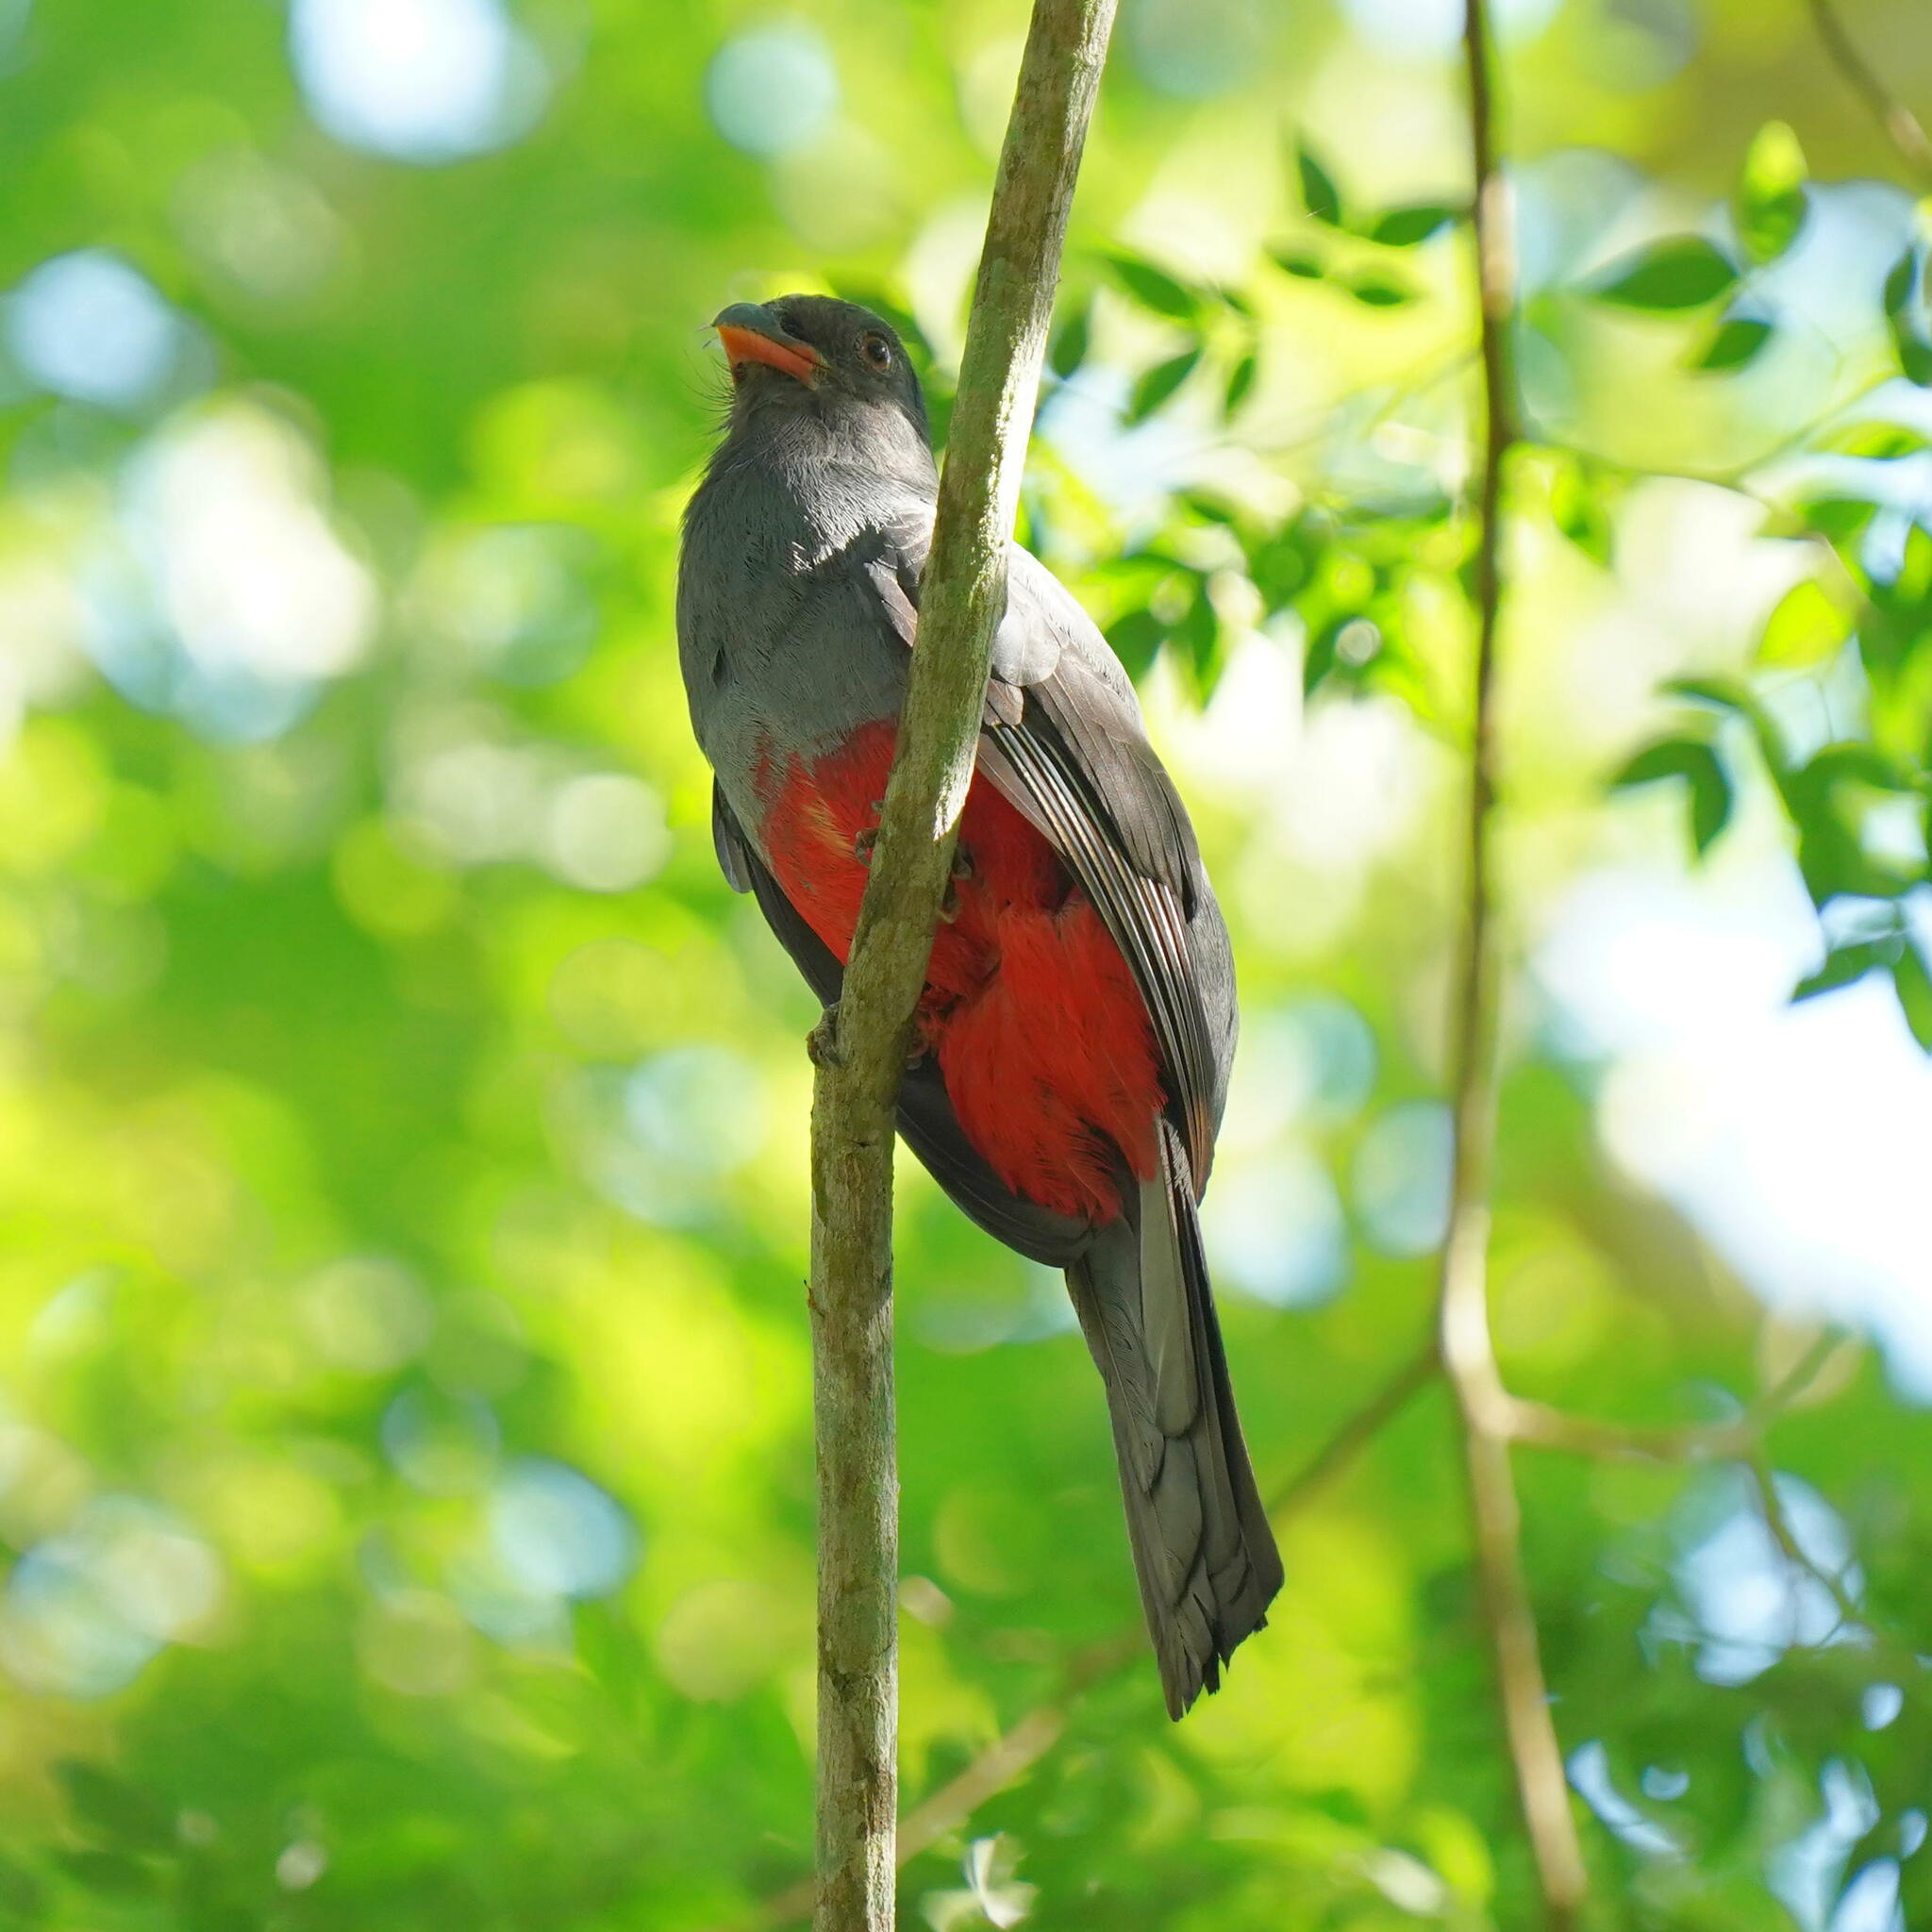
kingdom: Animalia
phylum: Chordata
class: Aves
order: Trogoniformes
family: Trogonidae
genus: Trogon
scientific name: Trogon massena
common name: Slaty-tailed trogon
